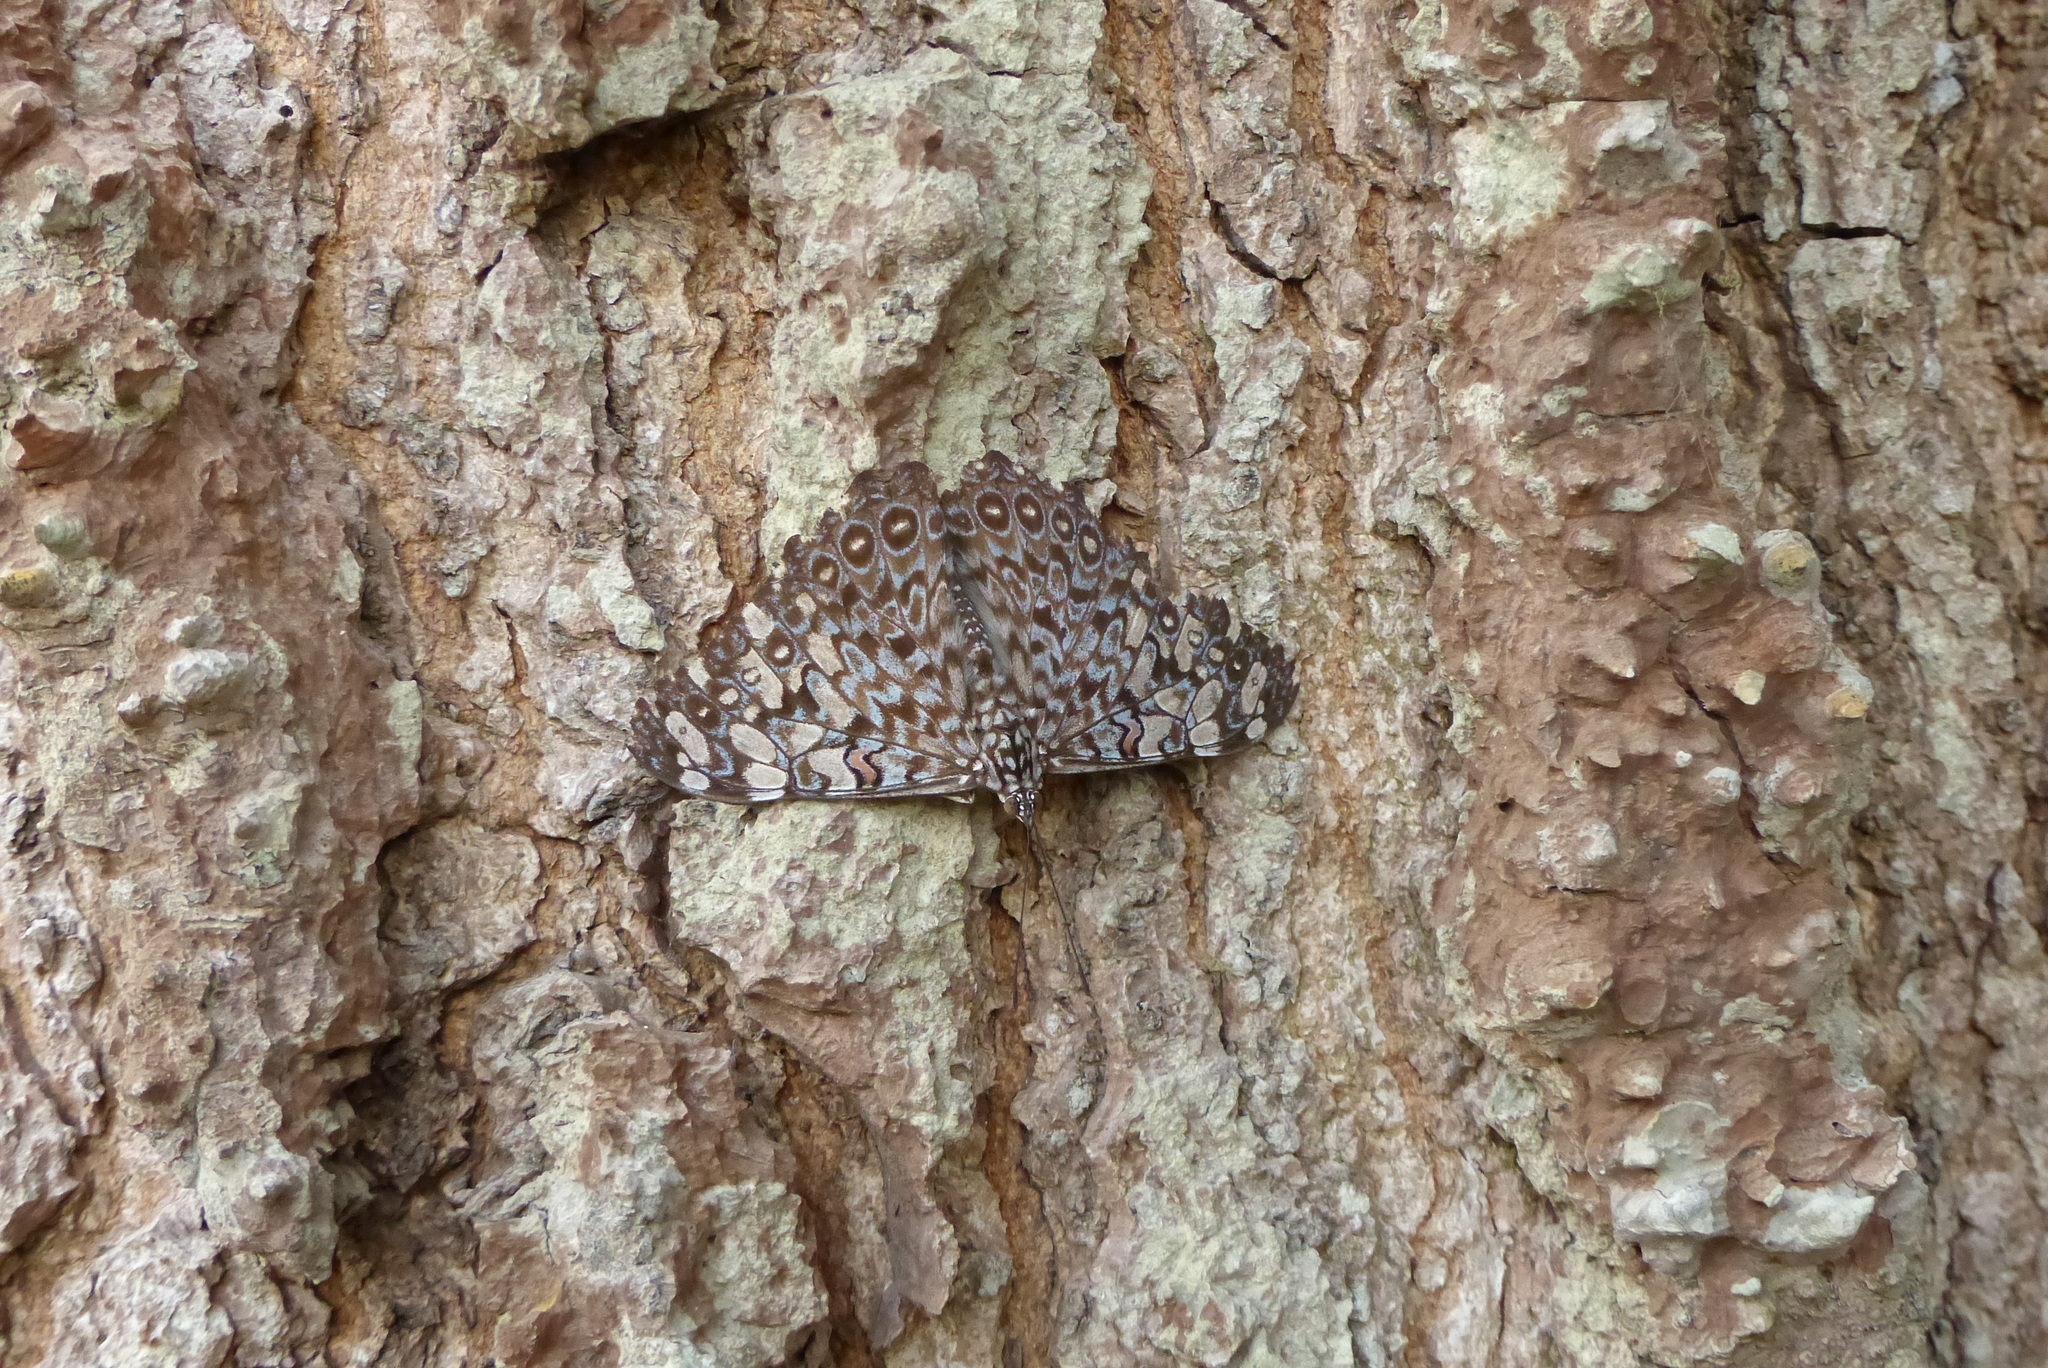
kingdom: Animalia
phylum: Arthropoda
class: Insecta
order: Lepidoptera
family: Nymphalidae
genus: Hamadryas
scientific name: Hamadryas feronia
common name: Variable cracker
